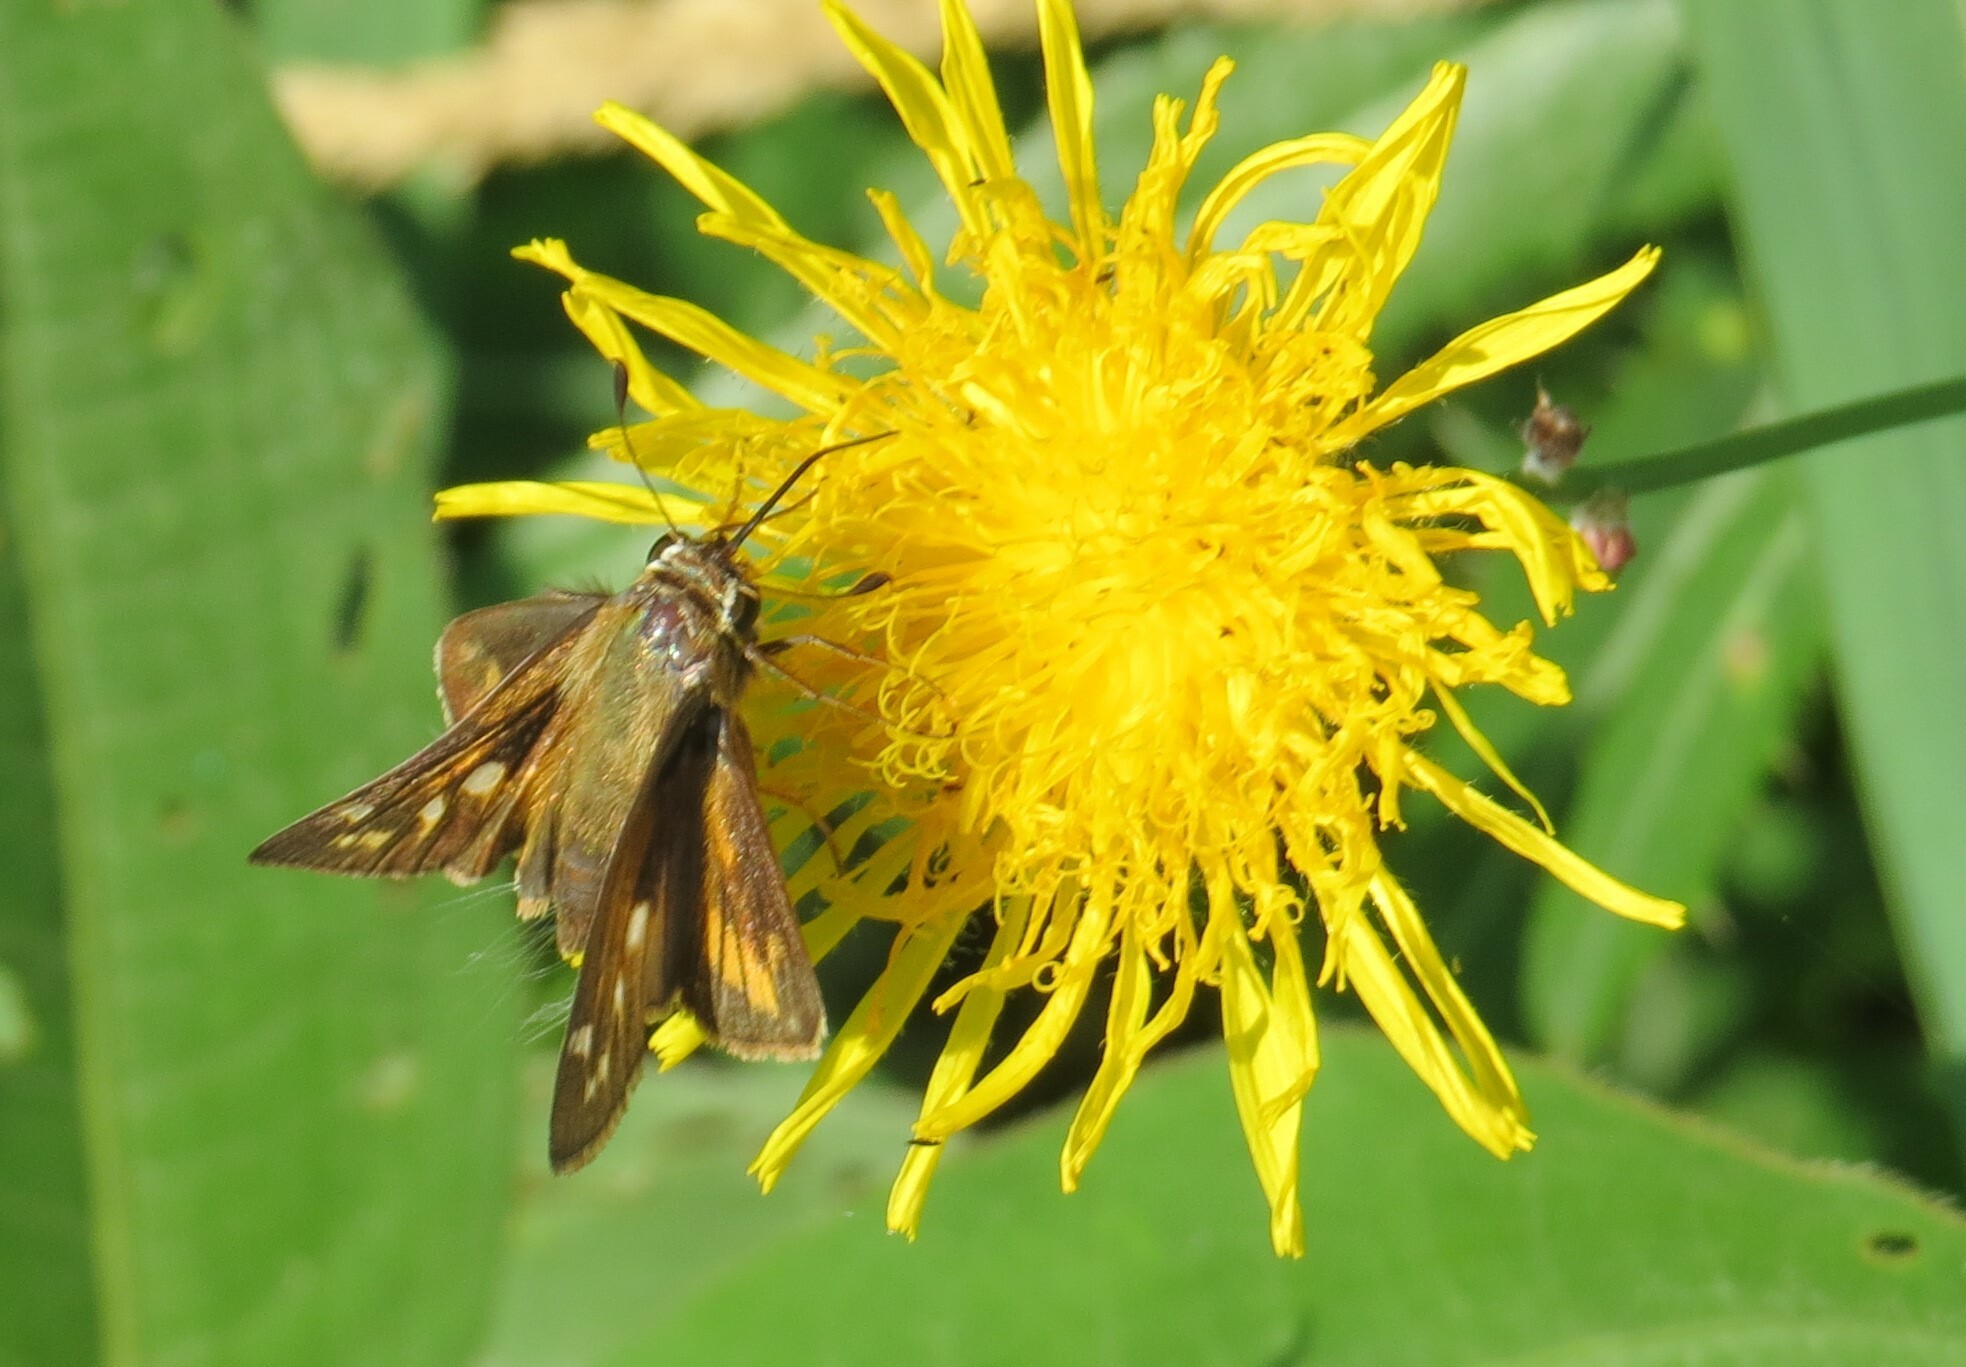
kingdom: Animalia
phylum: Arthropoda
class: Insecta
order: Lepidoptera
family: Hesperiidae
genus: Atalopedes
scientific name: Atalopedes
